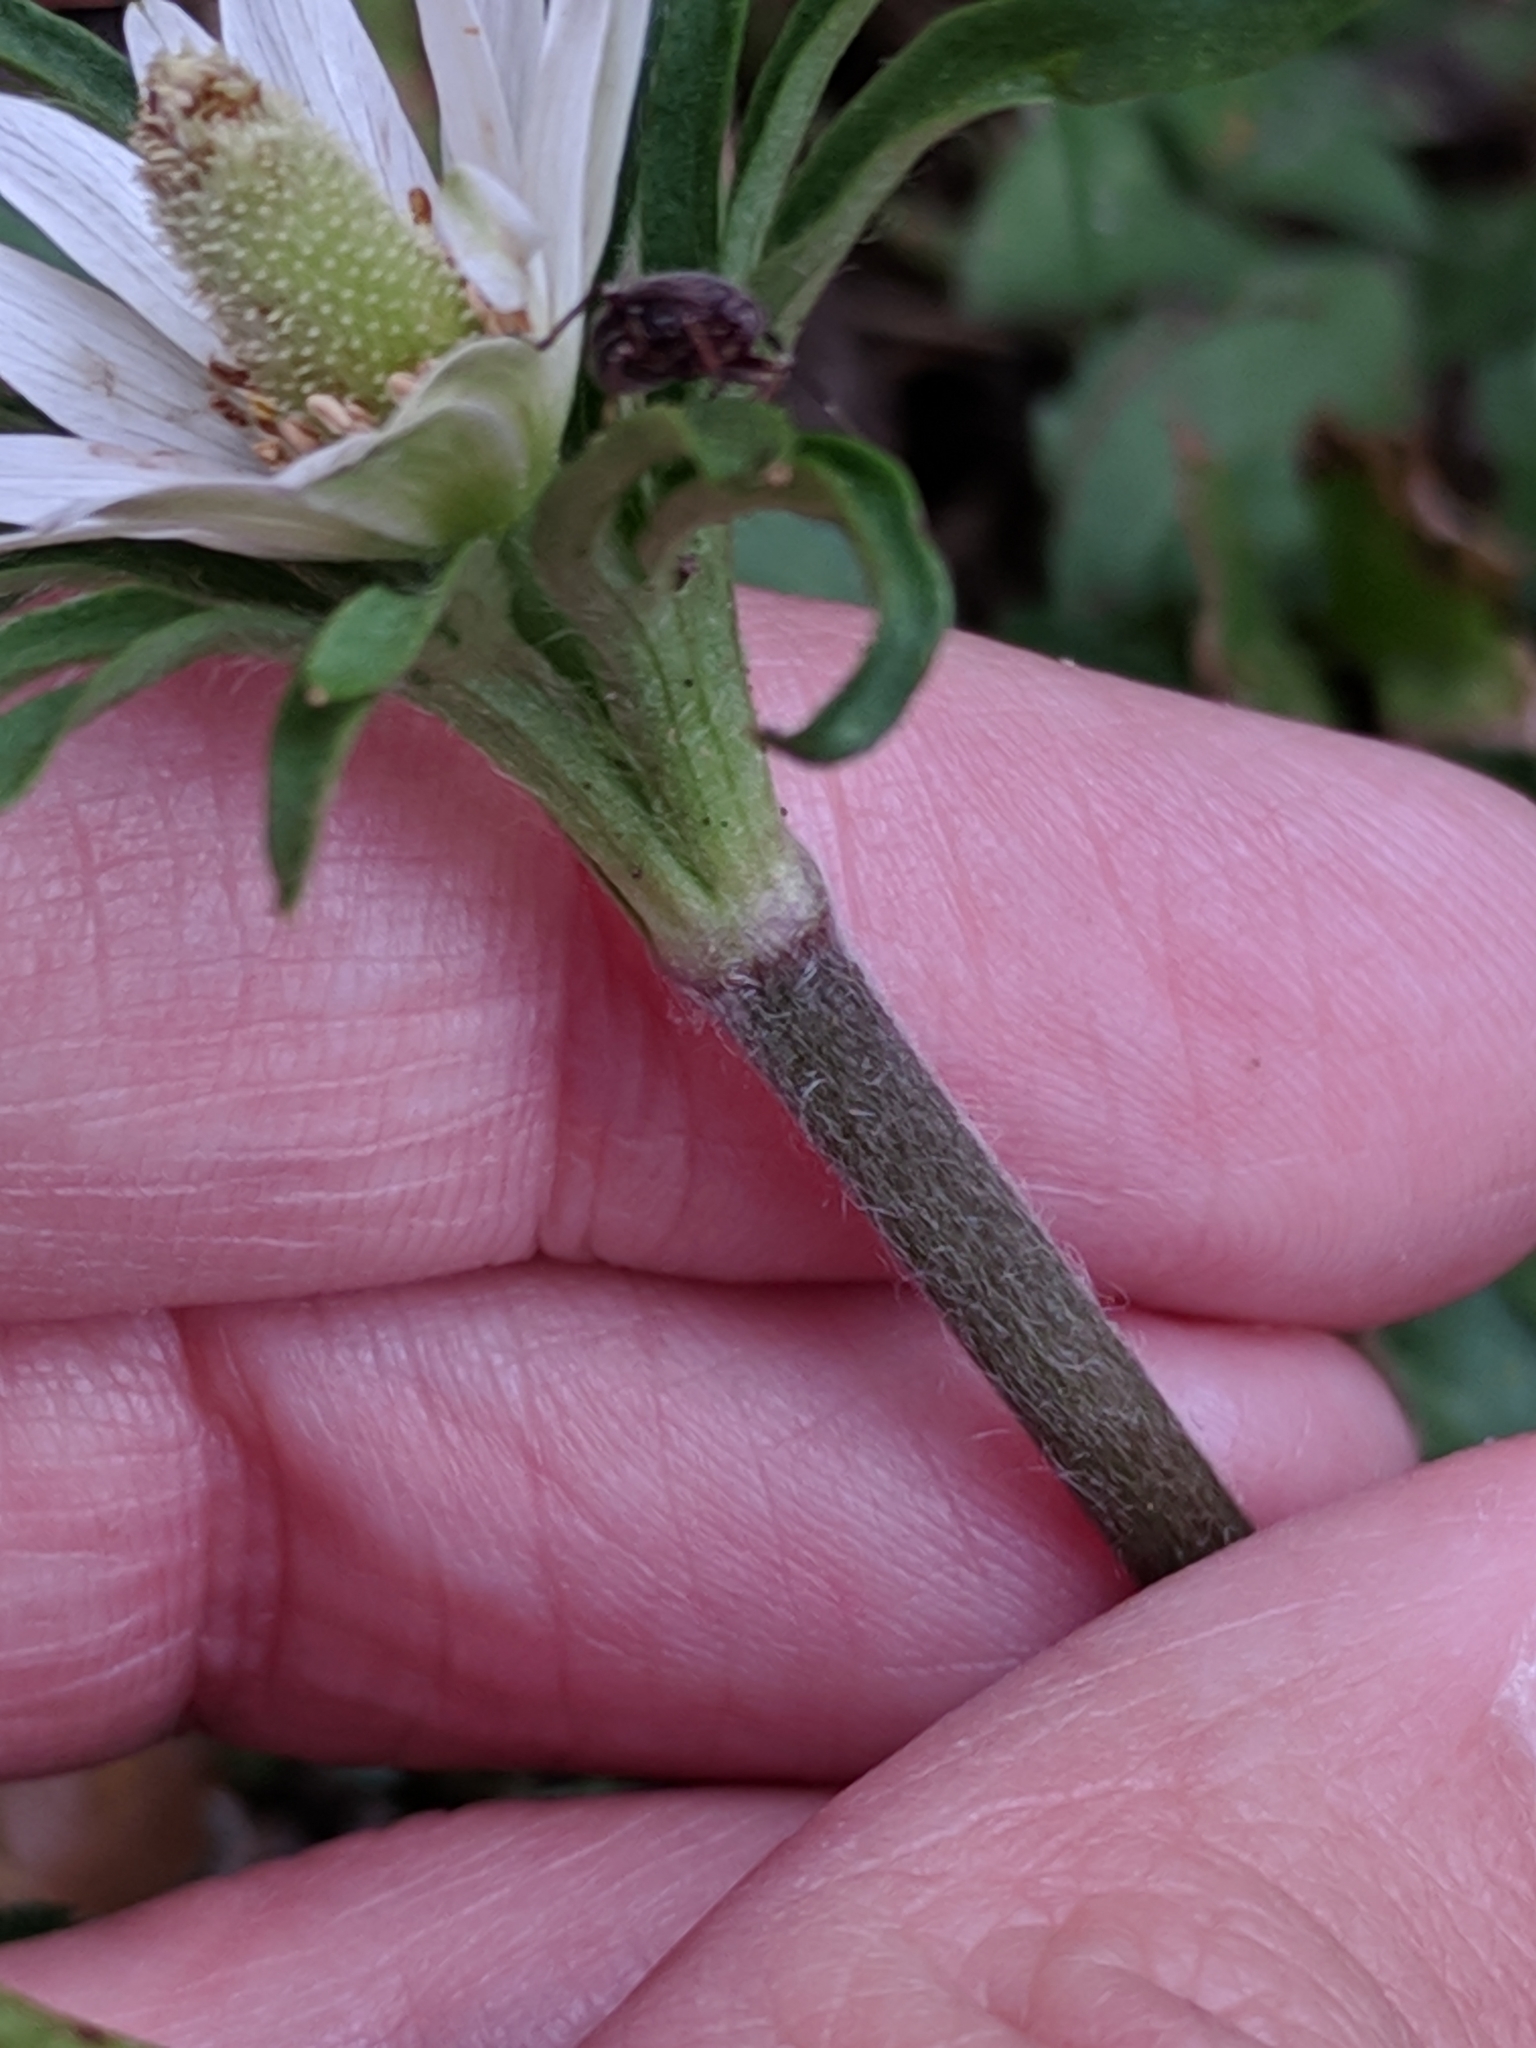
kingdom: Plantae
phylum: Tracheophyta
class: Magnoliopsida
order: Ranunculales
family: Ranunculaceae
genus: Anemone
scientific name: Anemone berlandieri
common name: Ten-petal anemone
